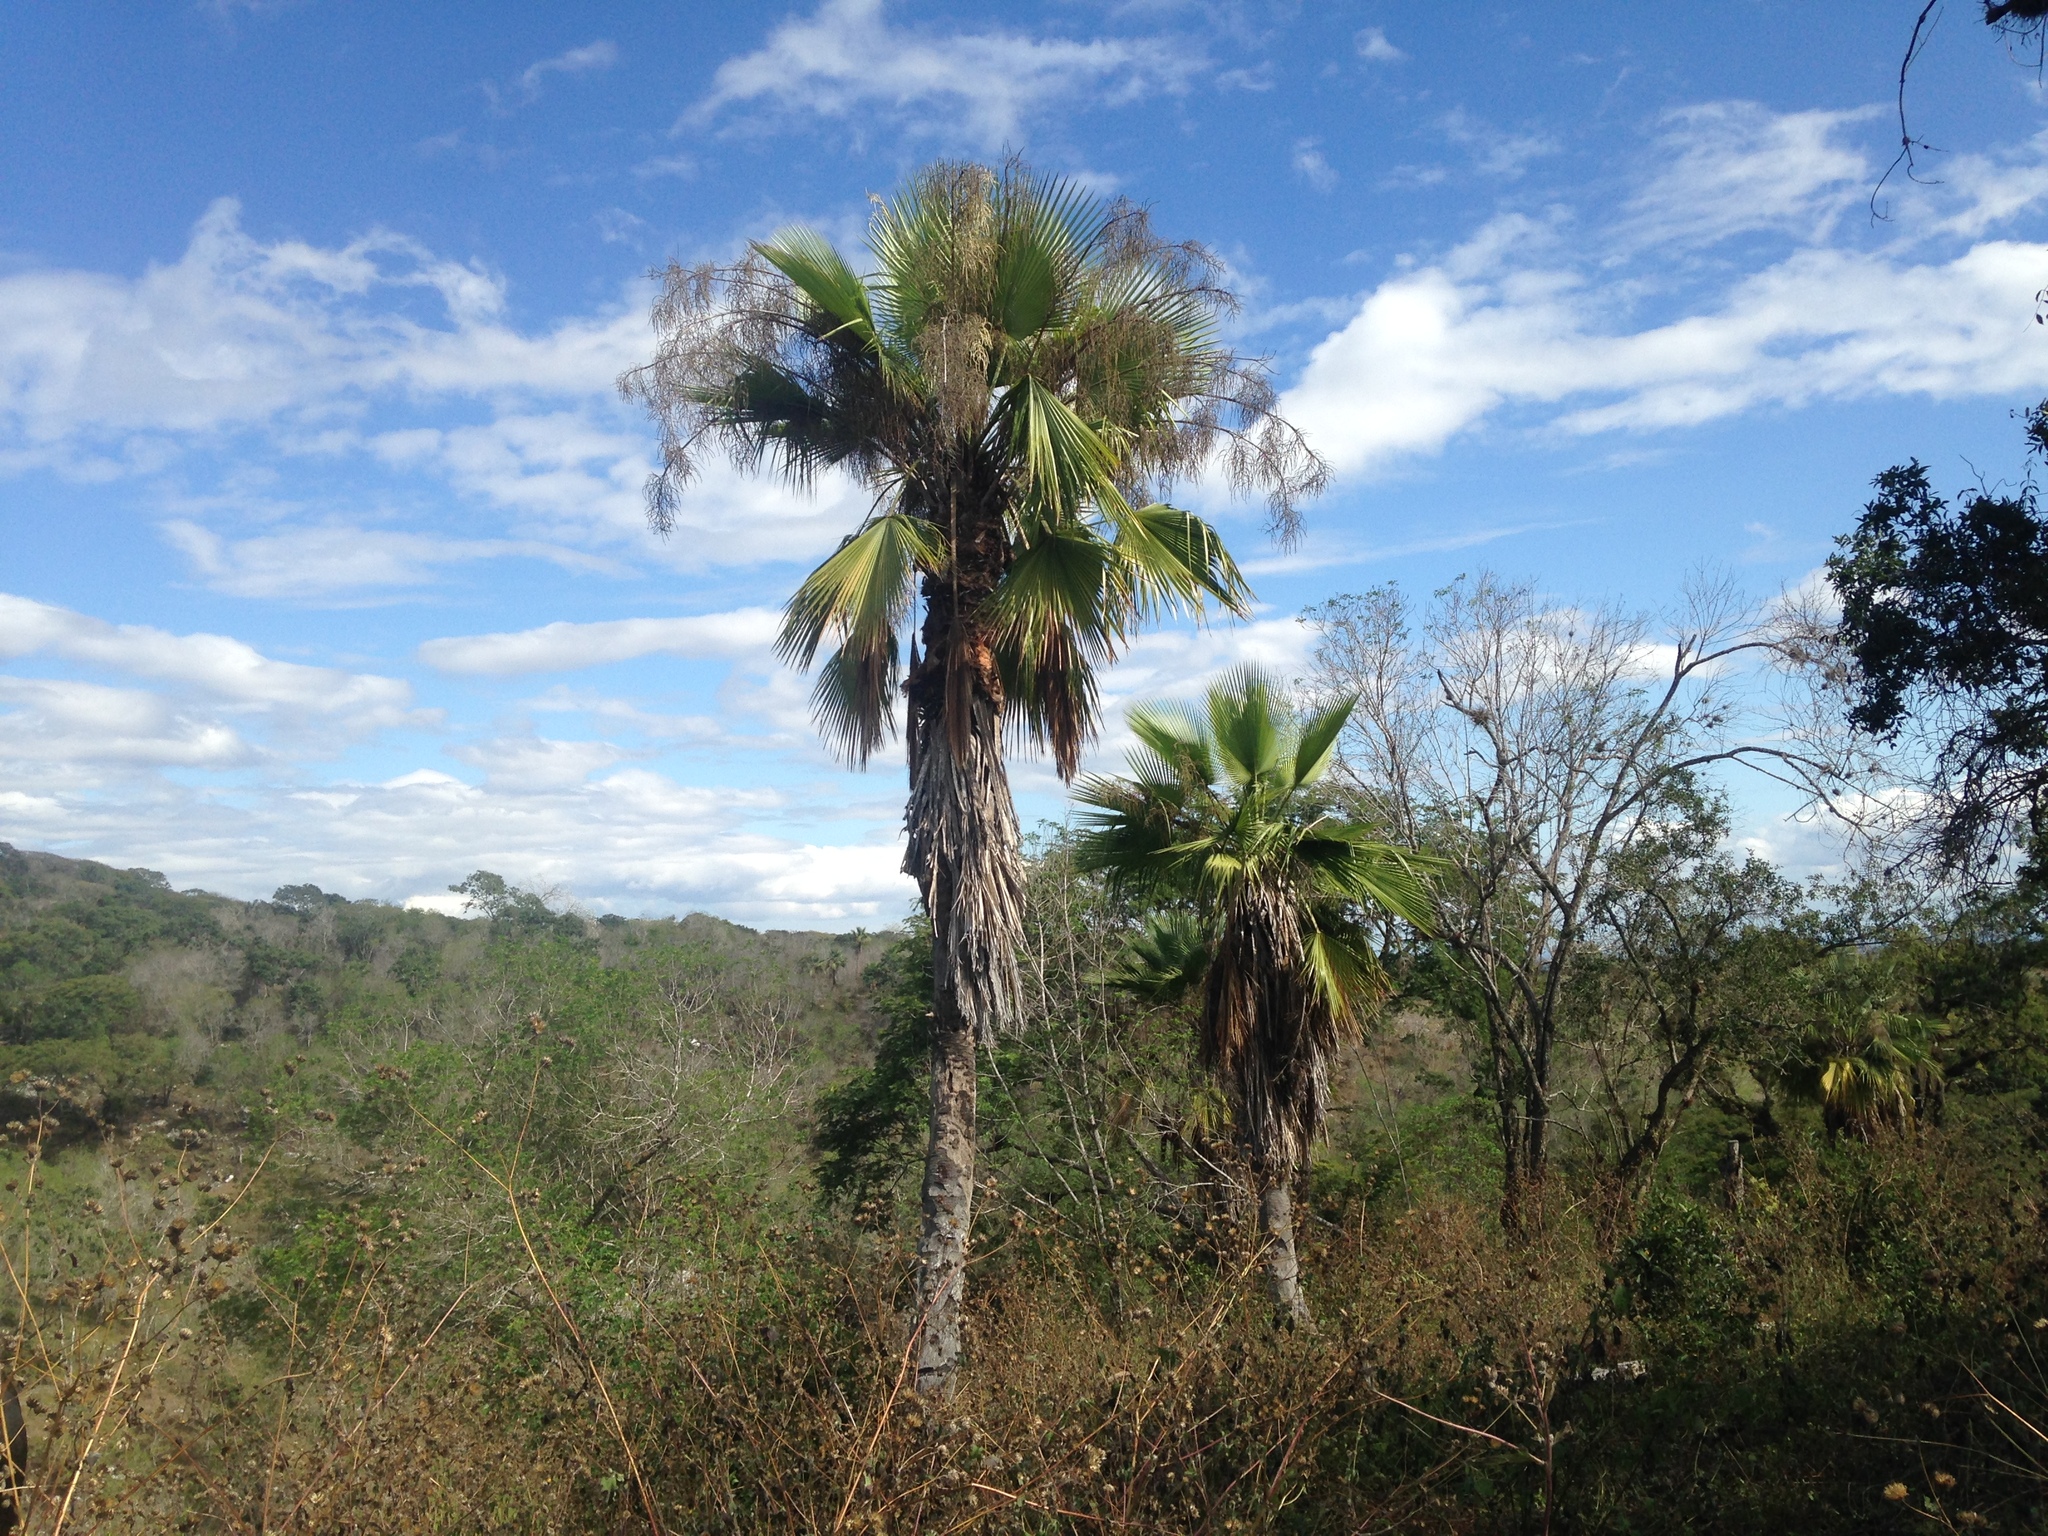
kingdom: Plantae
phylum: Tracheophyta
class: Liliopsida
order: Arecales
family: Arecaceae
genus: Brahea
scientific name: Brahea dulcis
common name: Apak palm
